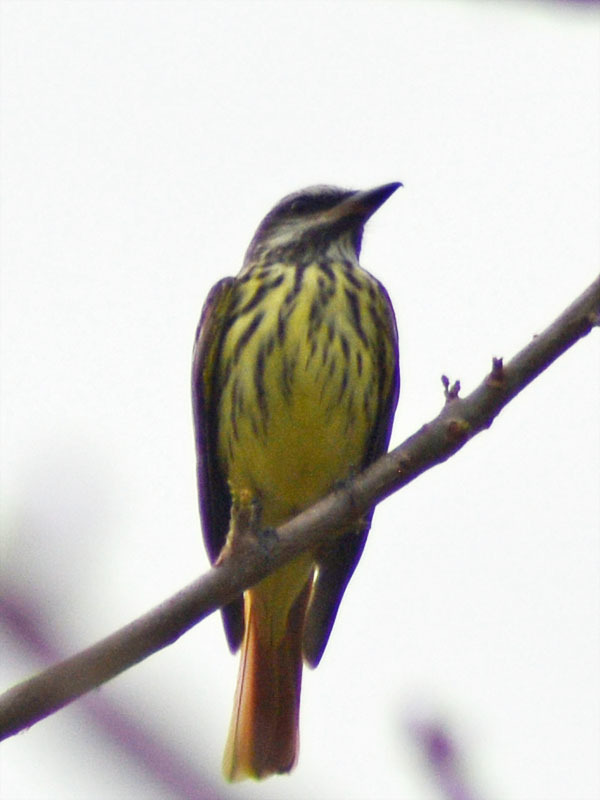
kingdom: Animalia
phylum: Chordata
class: Aves
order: Passeriformes
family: Tyrannidae
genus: Myiodynastes
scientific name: Myiodynastes luteiventris
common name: Sulphur-bellied flycatcher
